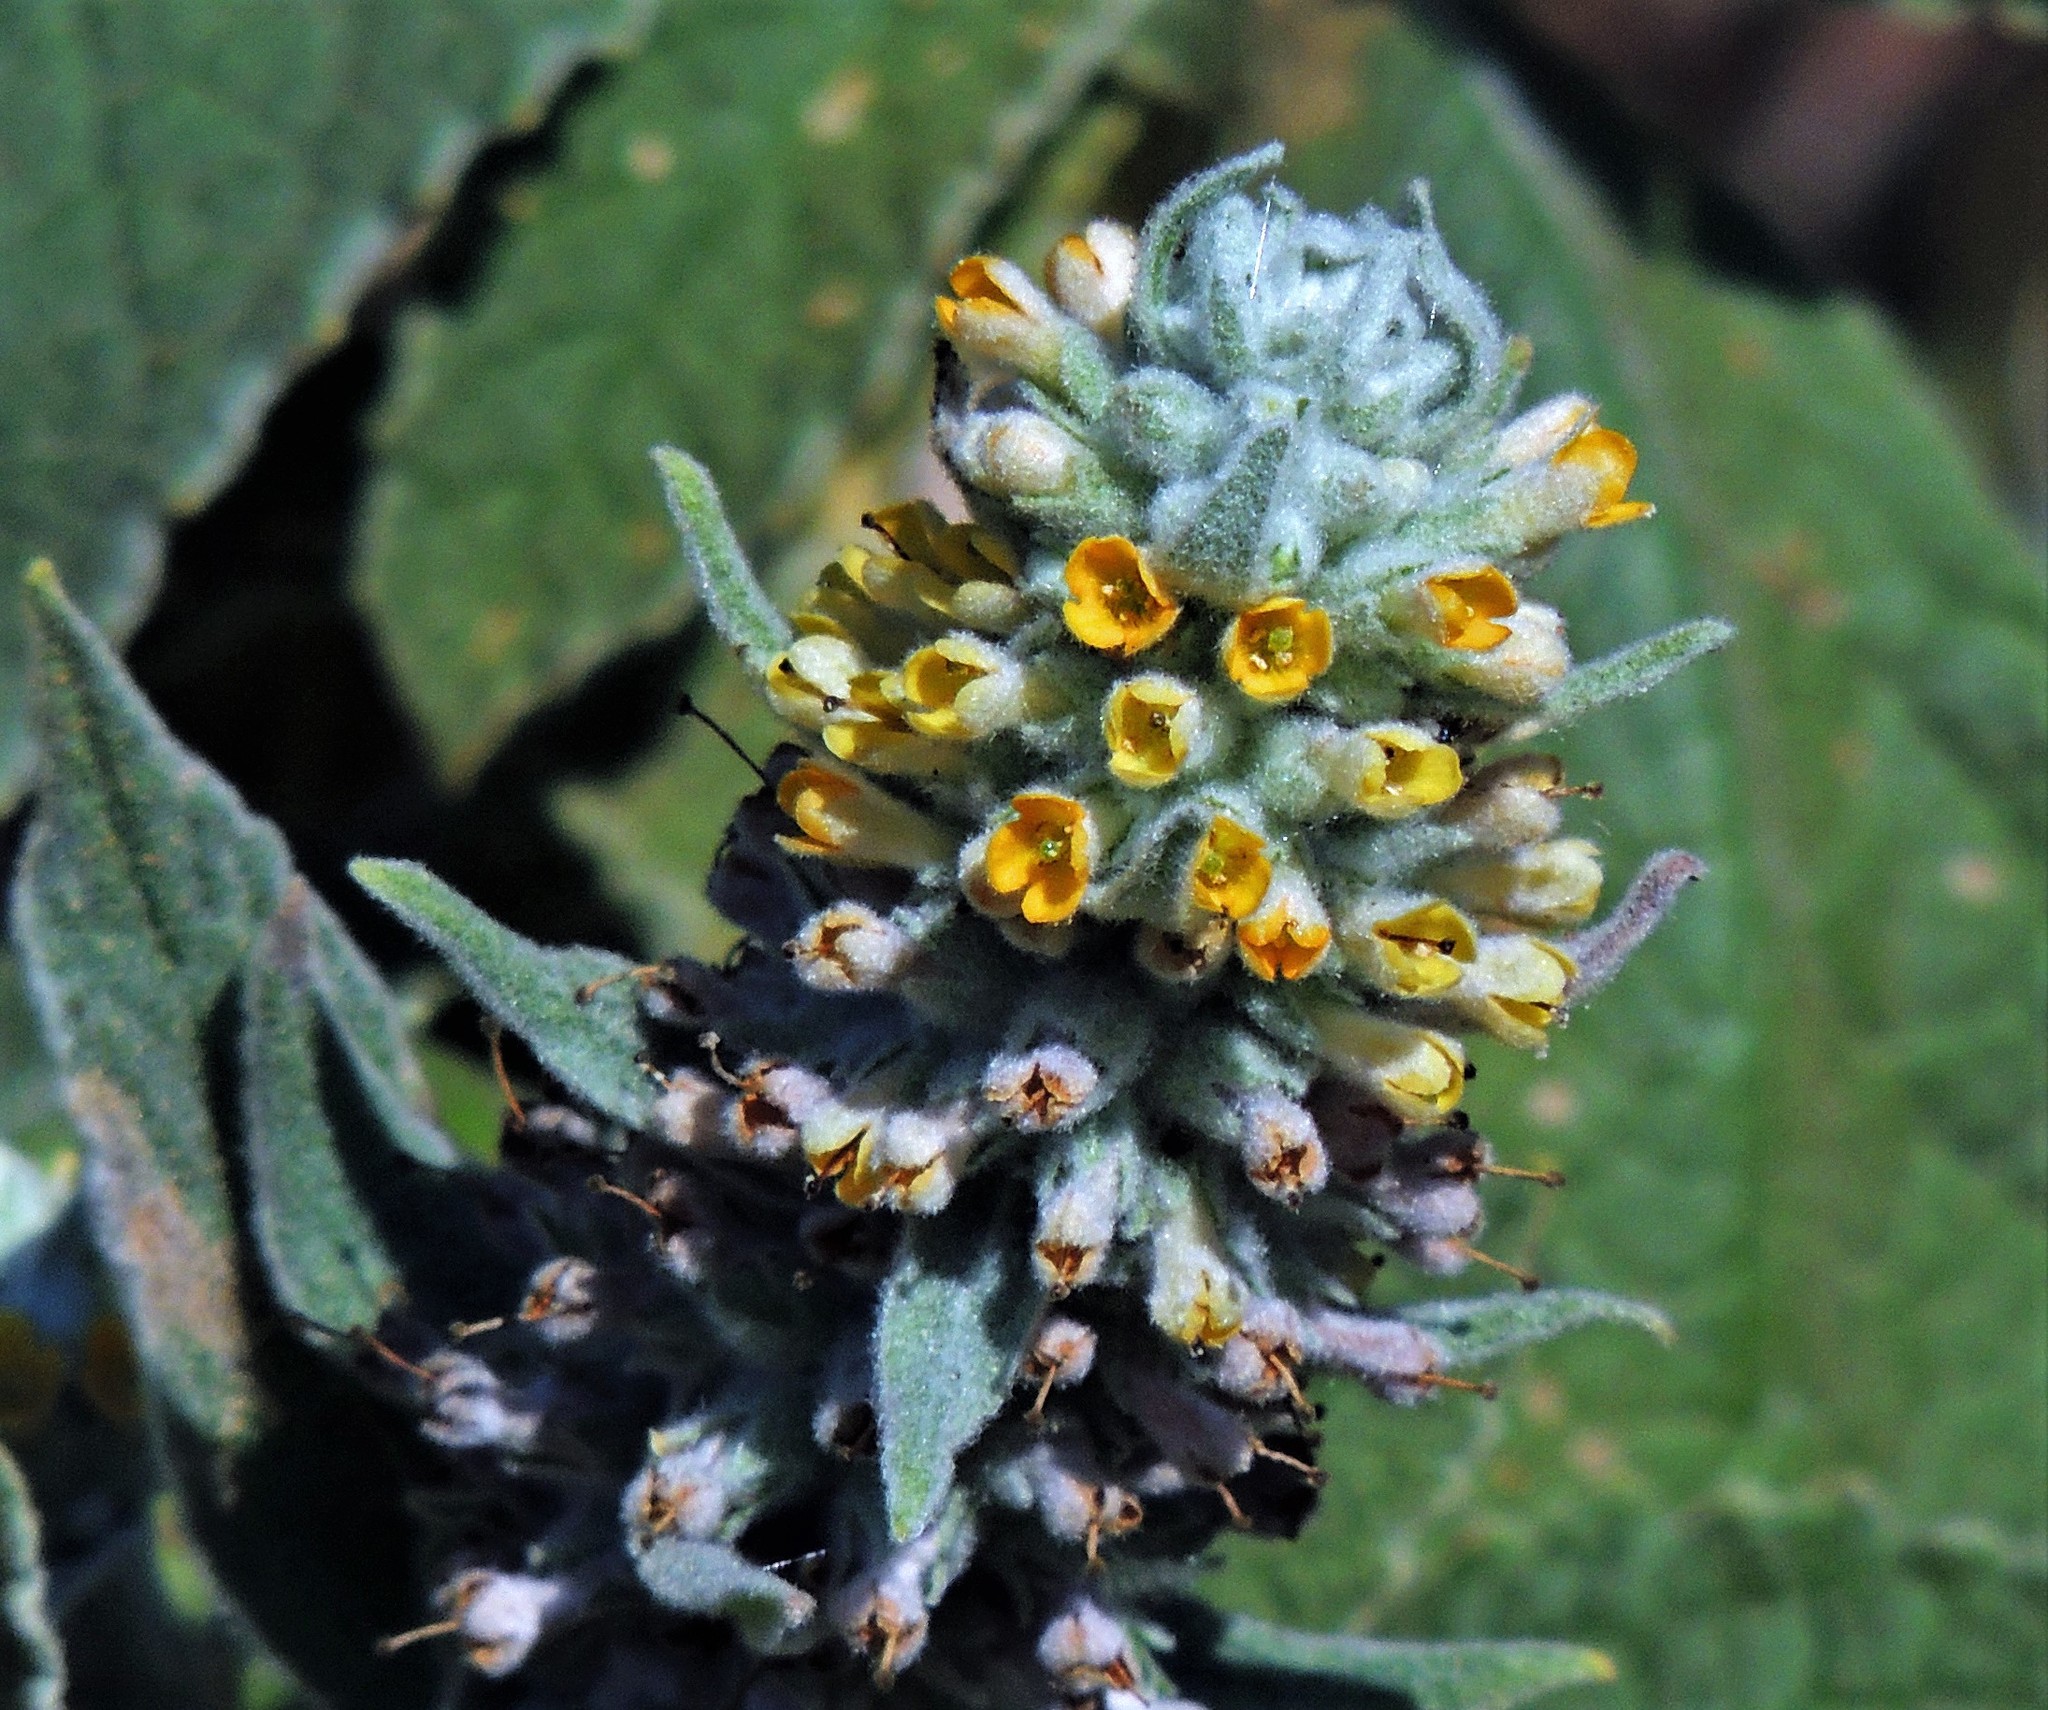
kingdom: Plantae
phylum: Tracheophyta
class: Magnoliopsida
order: Lamiales
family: Scrophulariaceae
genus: Buddleja
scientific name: Buddleja stachyoides
